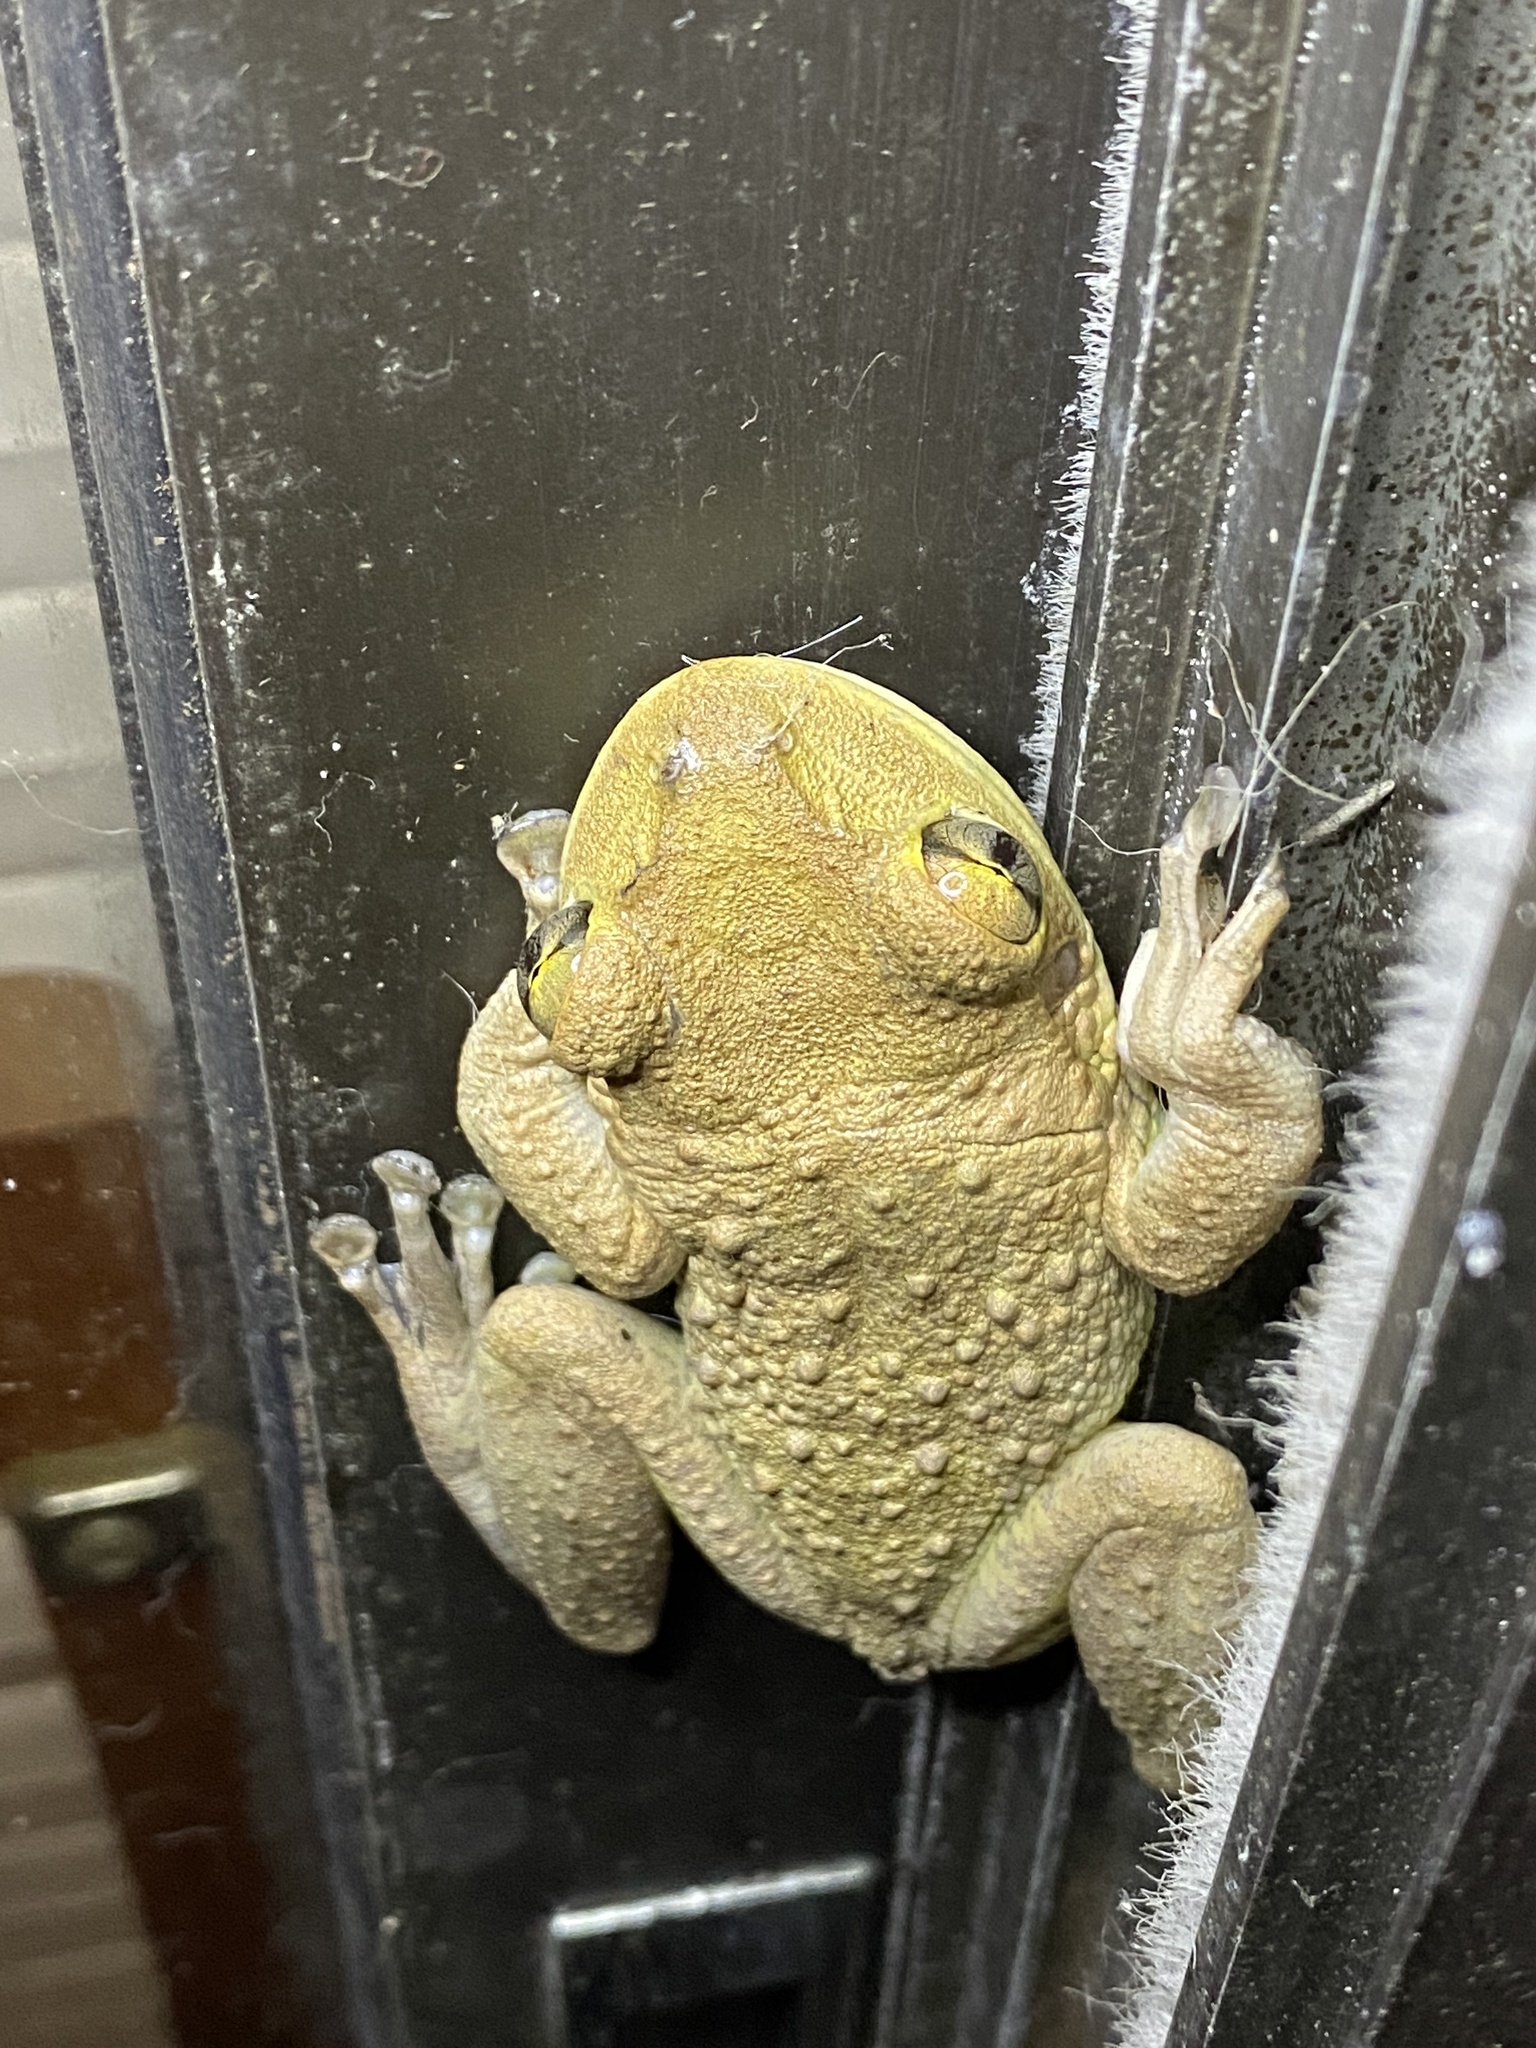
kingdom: Animalia
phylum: Chordata
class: Amphibia
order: Anura
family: Hylidae
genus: Osteopilus
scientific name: Osteopilus septentrionalis
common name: Cuban treefrog
